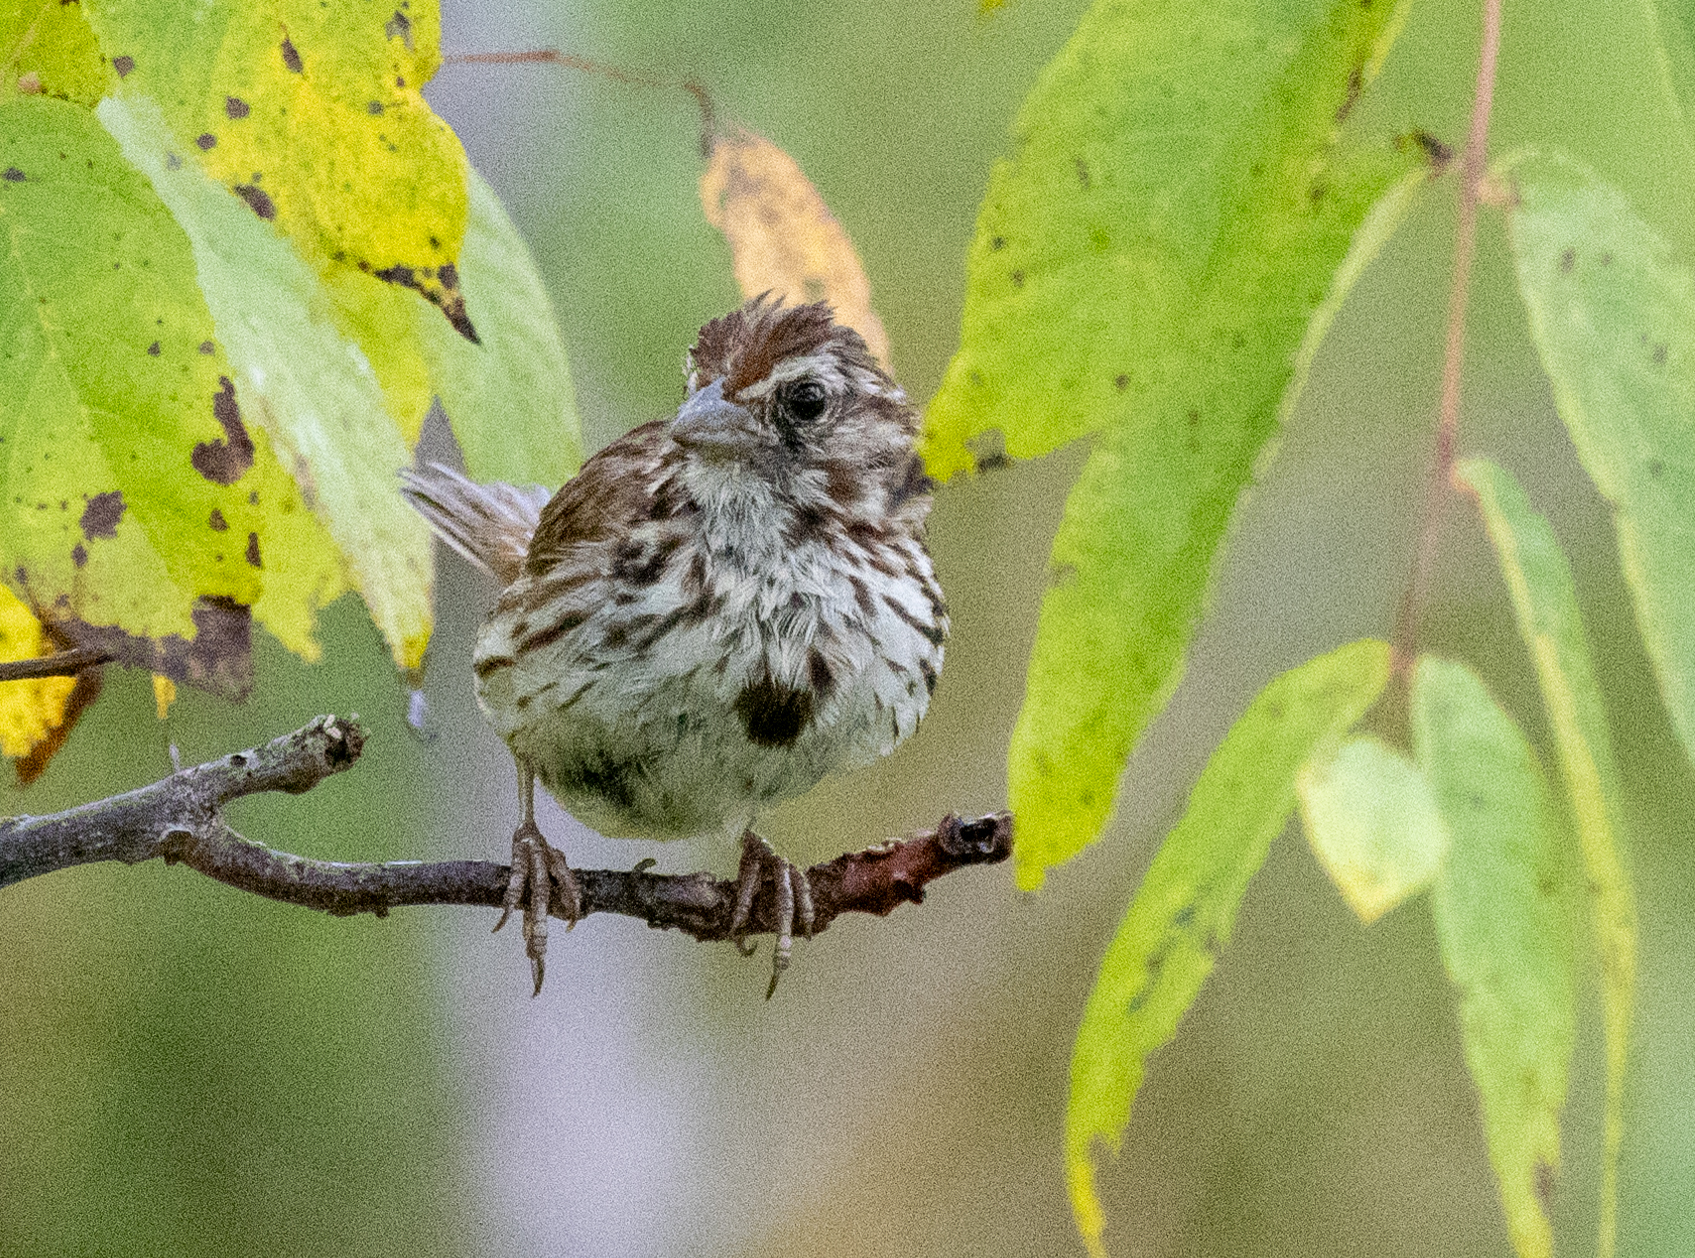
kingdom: Animalia
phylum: Chordata
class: Aves
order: Passeriformes
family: Passerellidae
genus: Melospiza
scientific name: Melospiza melodia
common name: Song sparrow
